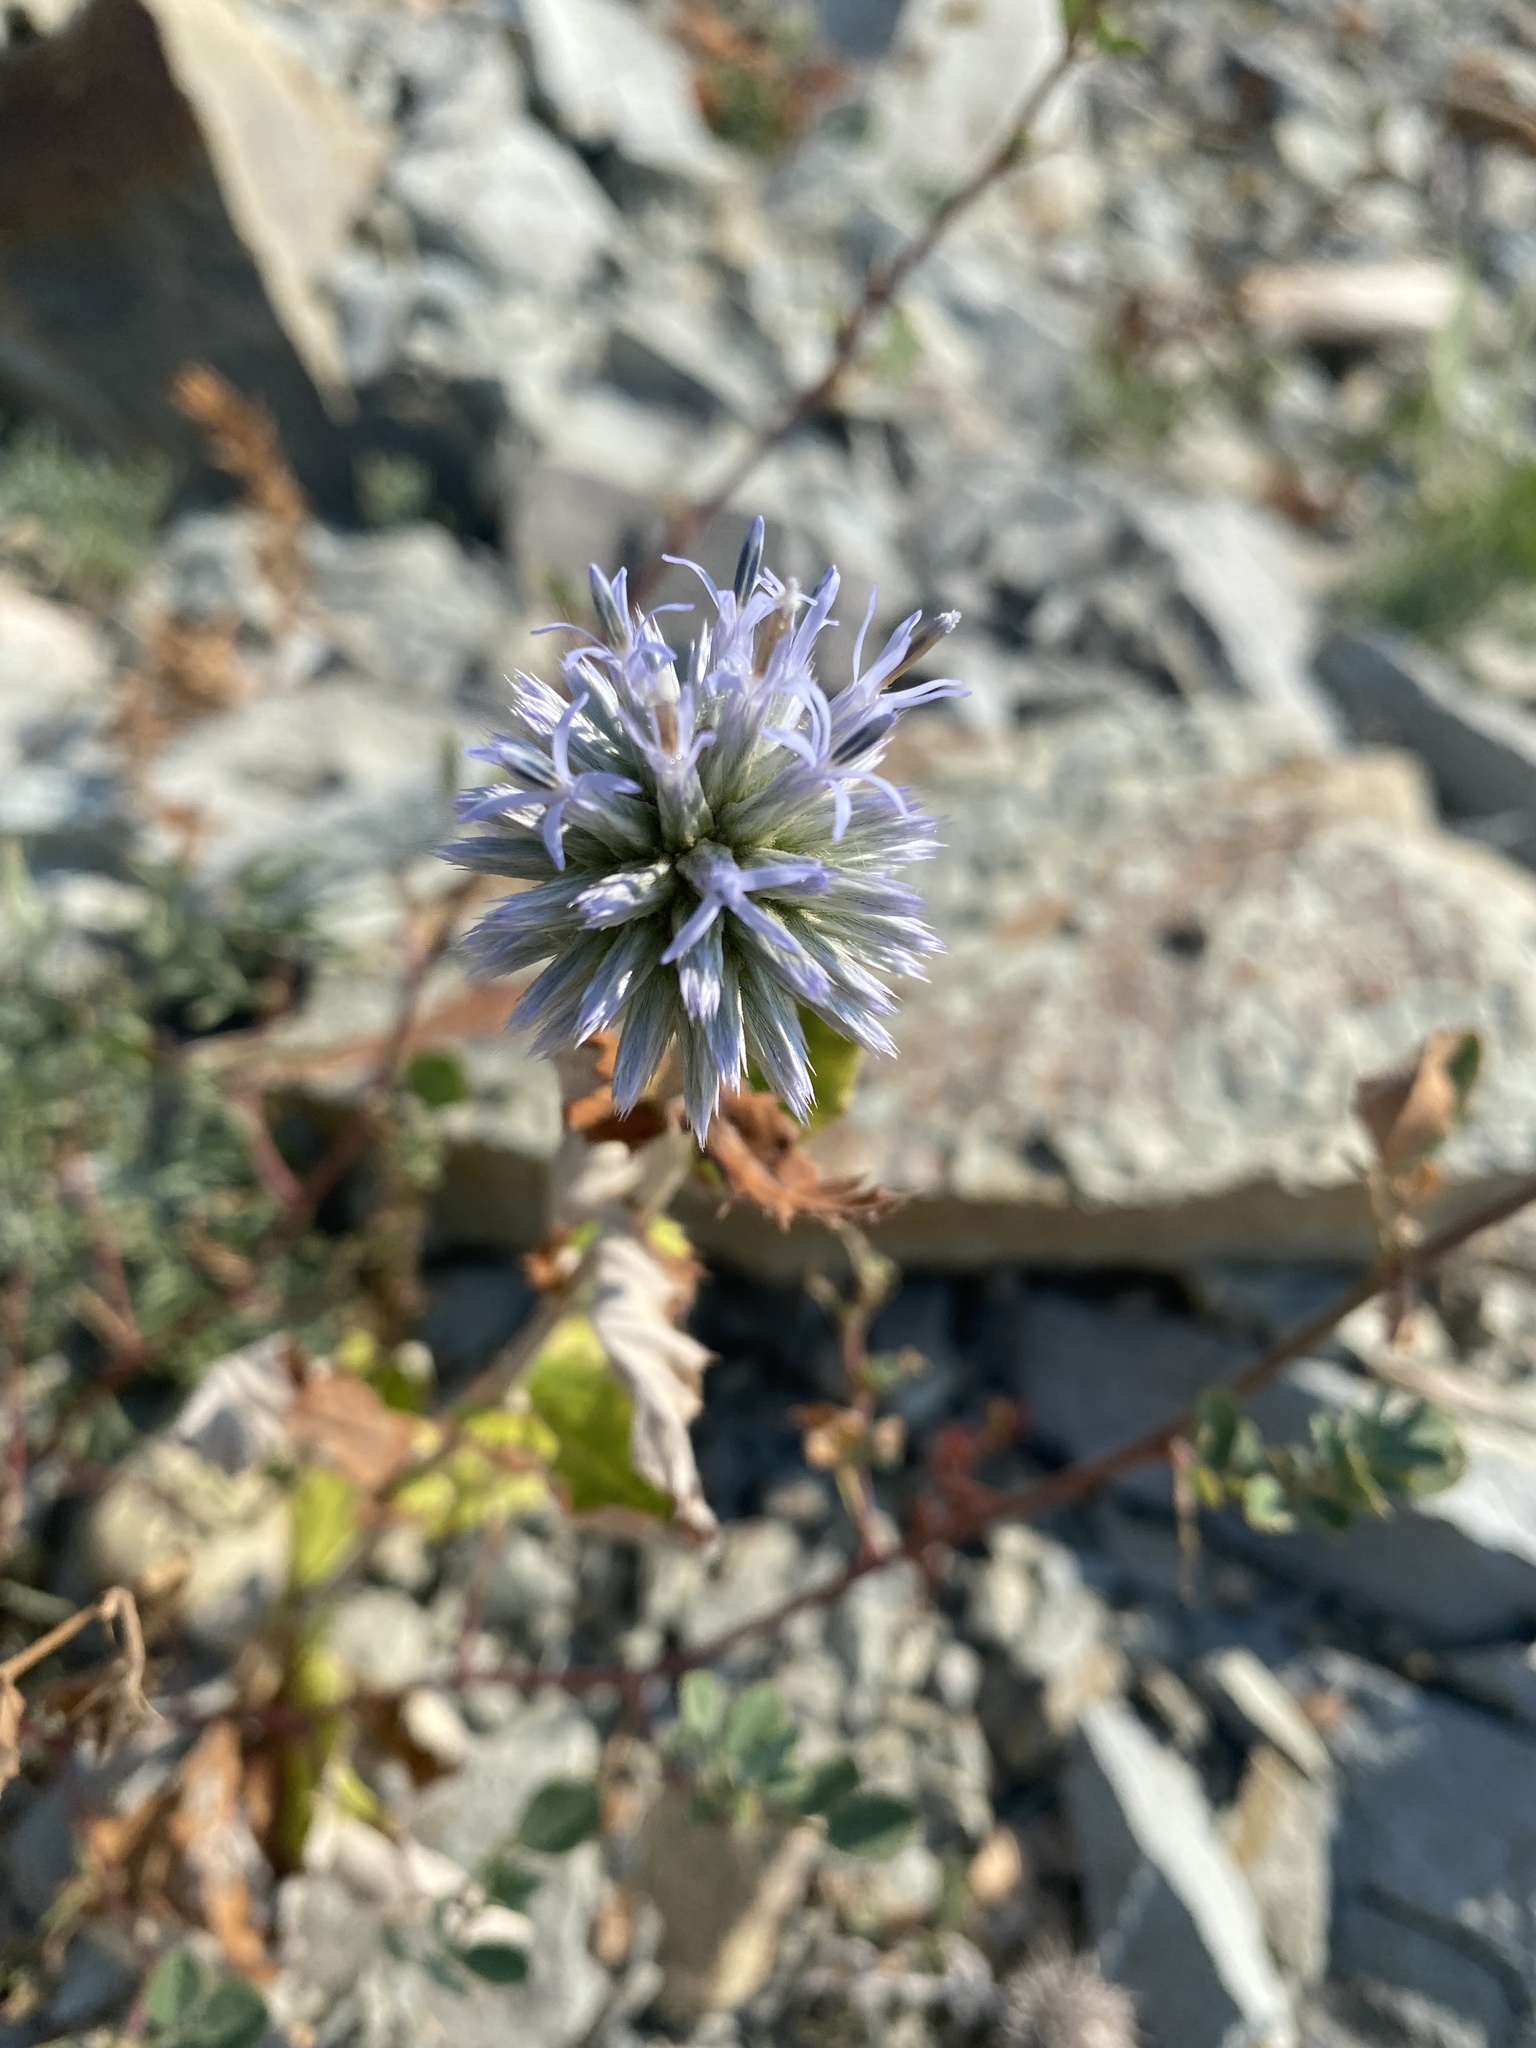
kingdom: Plantae
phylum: Tracheophyta
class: Magnoliopsida
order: Asterales
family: Asteraceae
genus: Echinops
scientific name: Echinops sphaerocephalus
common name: Glandular globe-thistle
